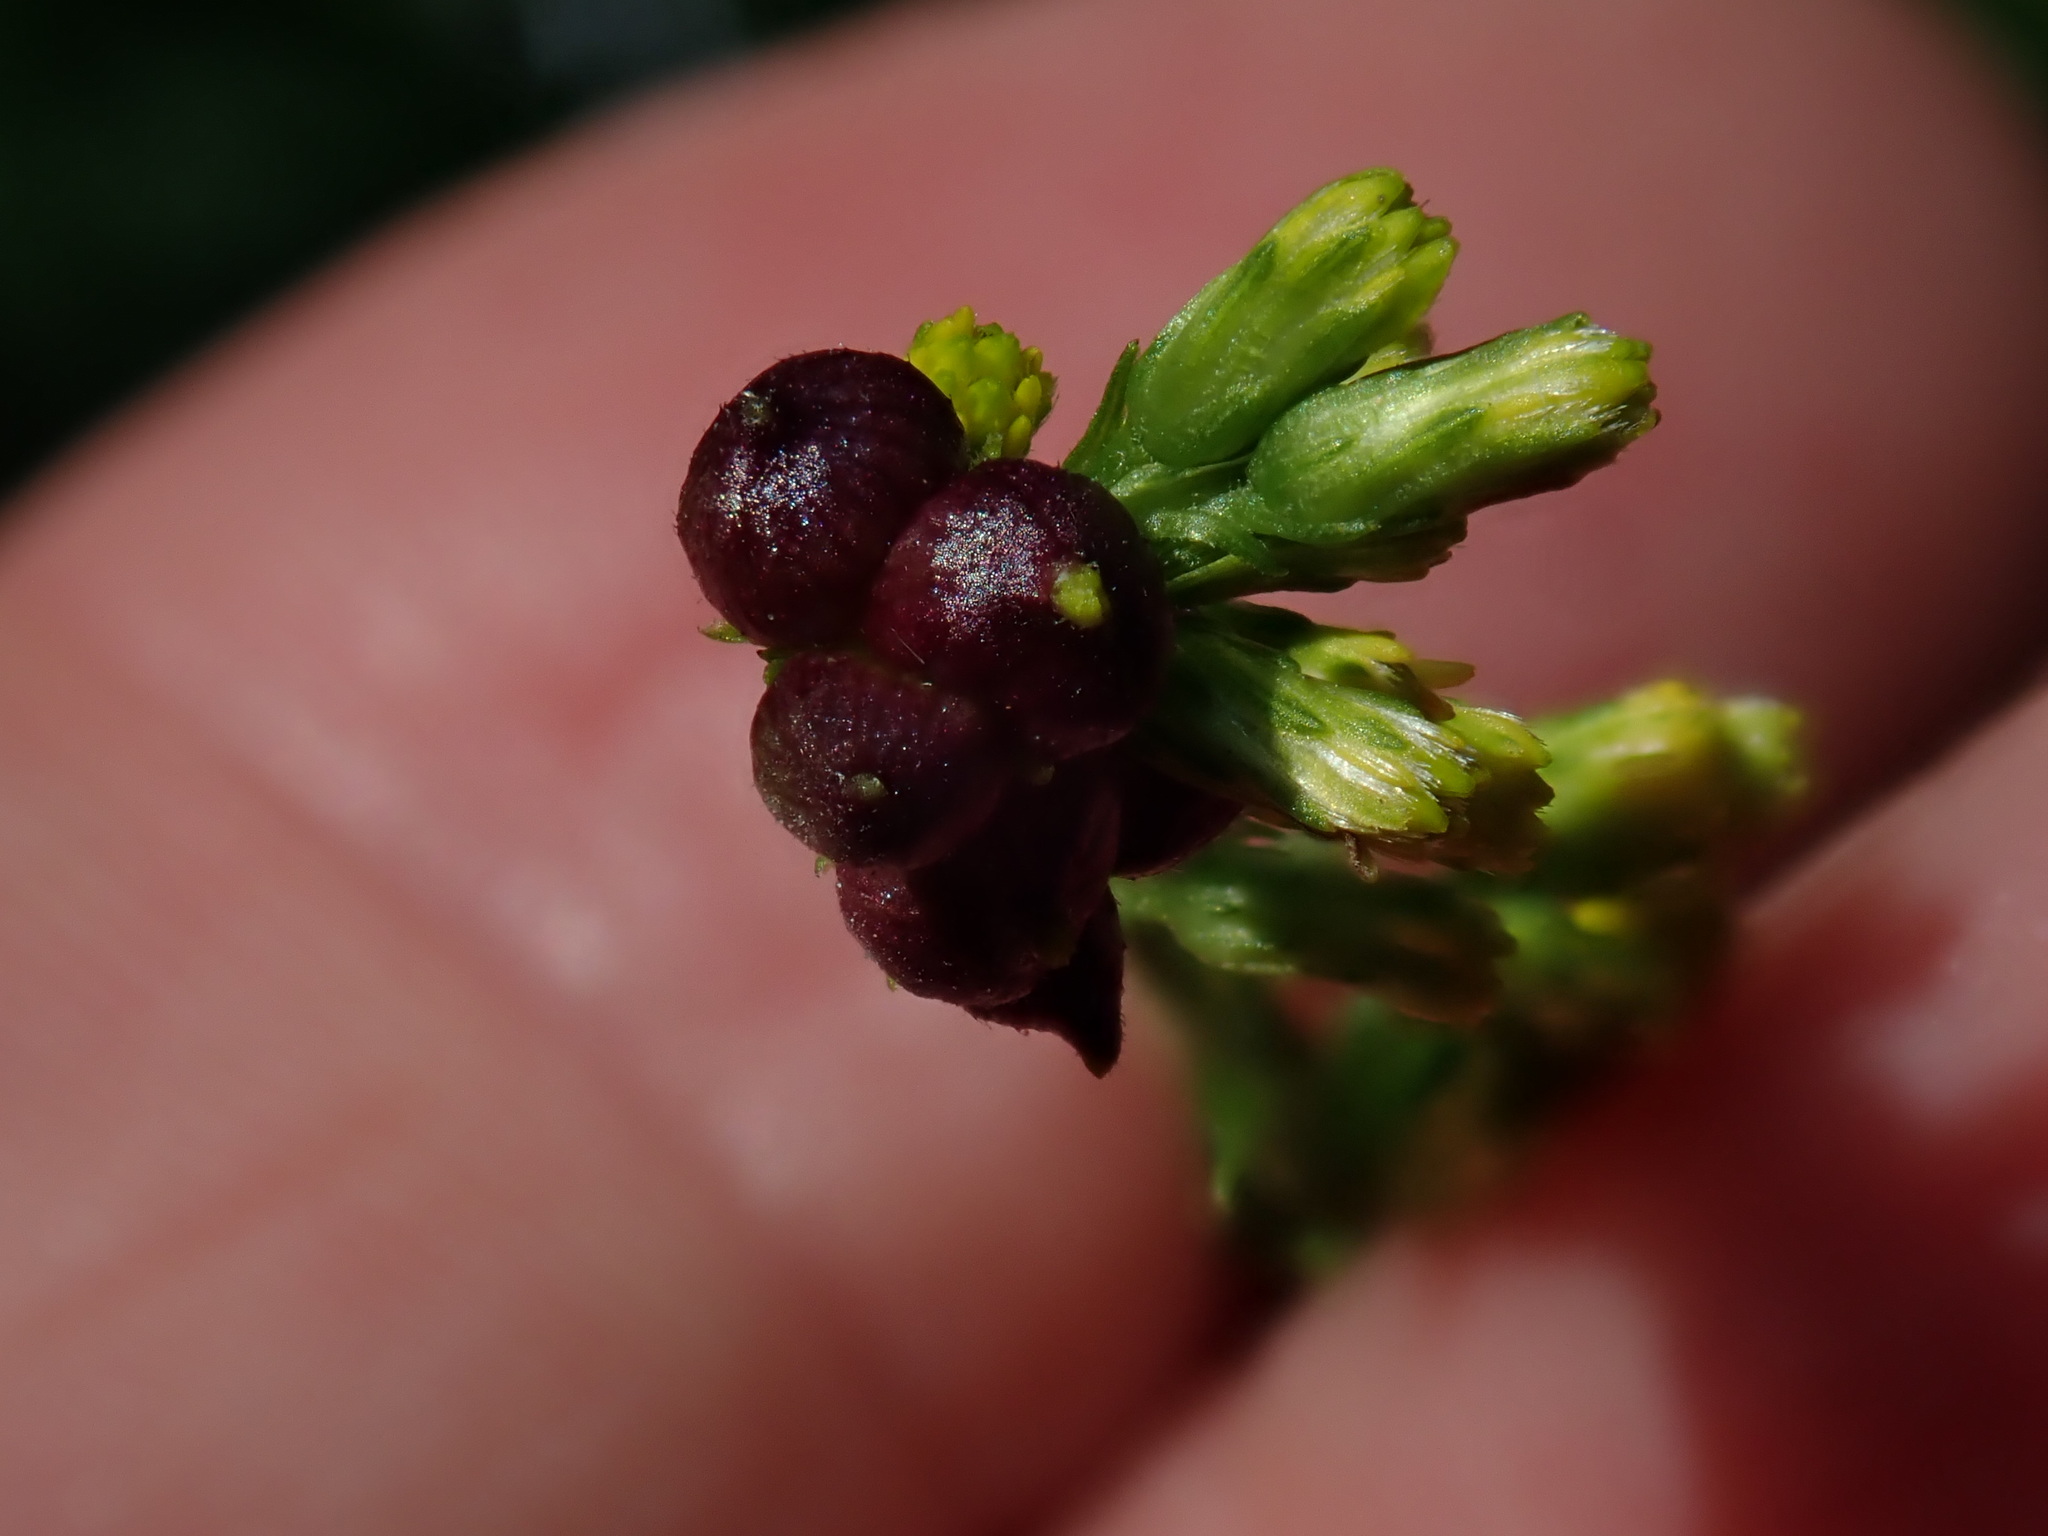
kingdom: Animalia
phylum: Arthropoda
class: Insecta
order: Diptera
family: Cecidomyiidae
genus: Schizomyia
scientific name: Schizomyia racemicola
